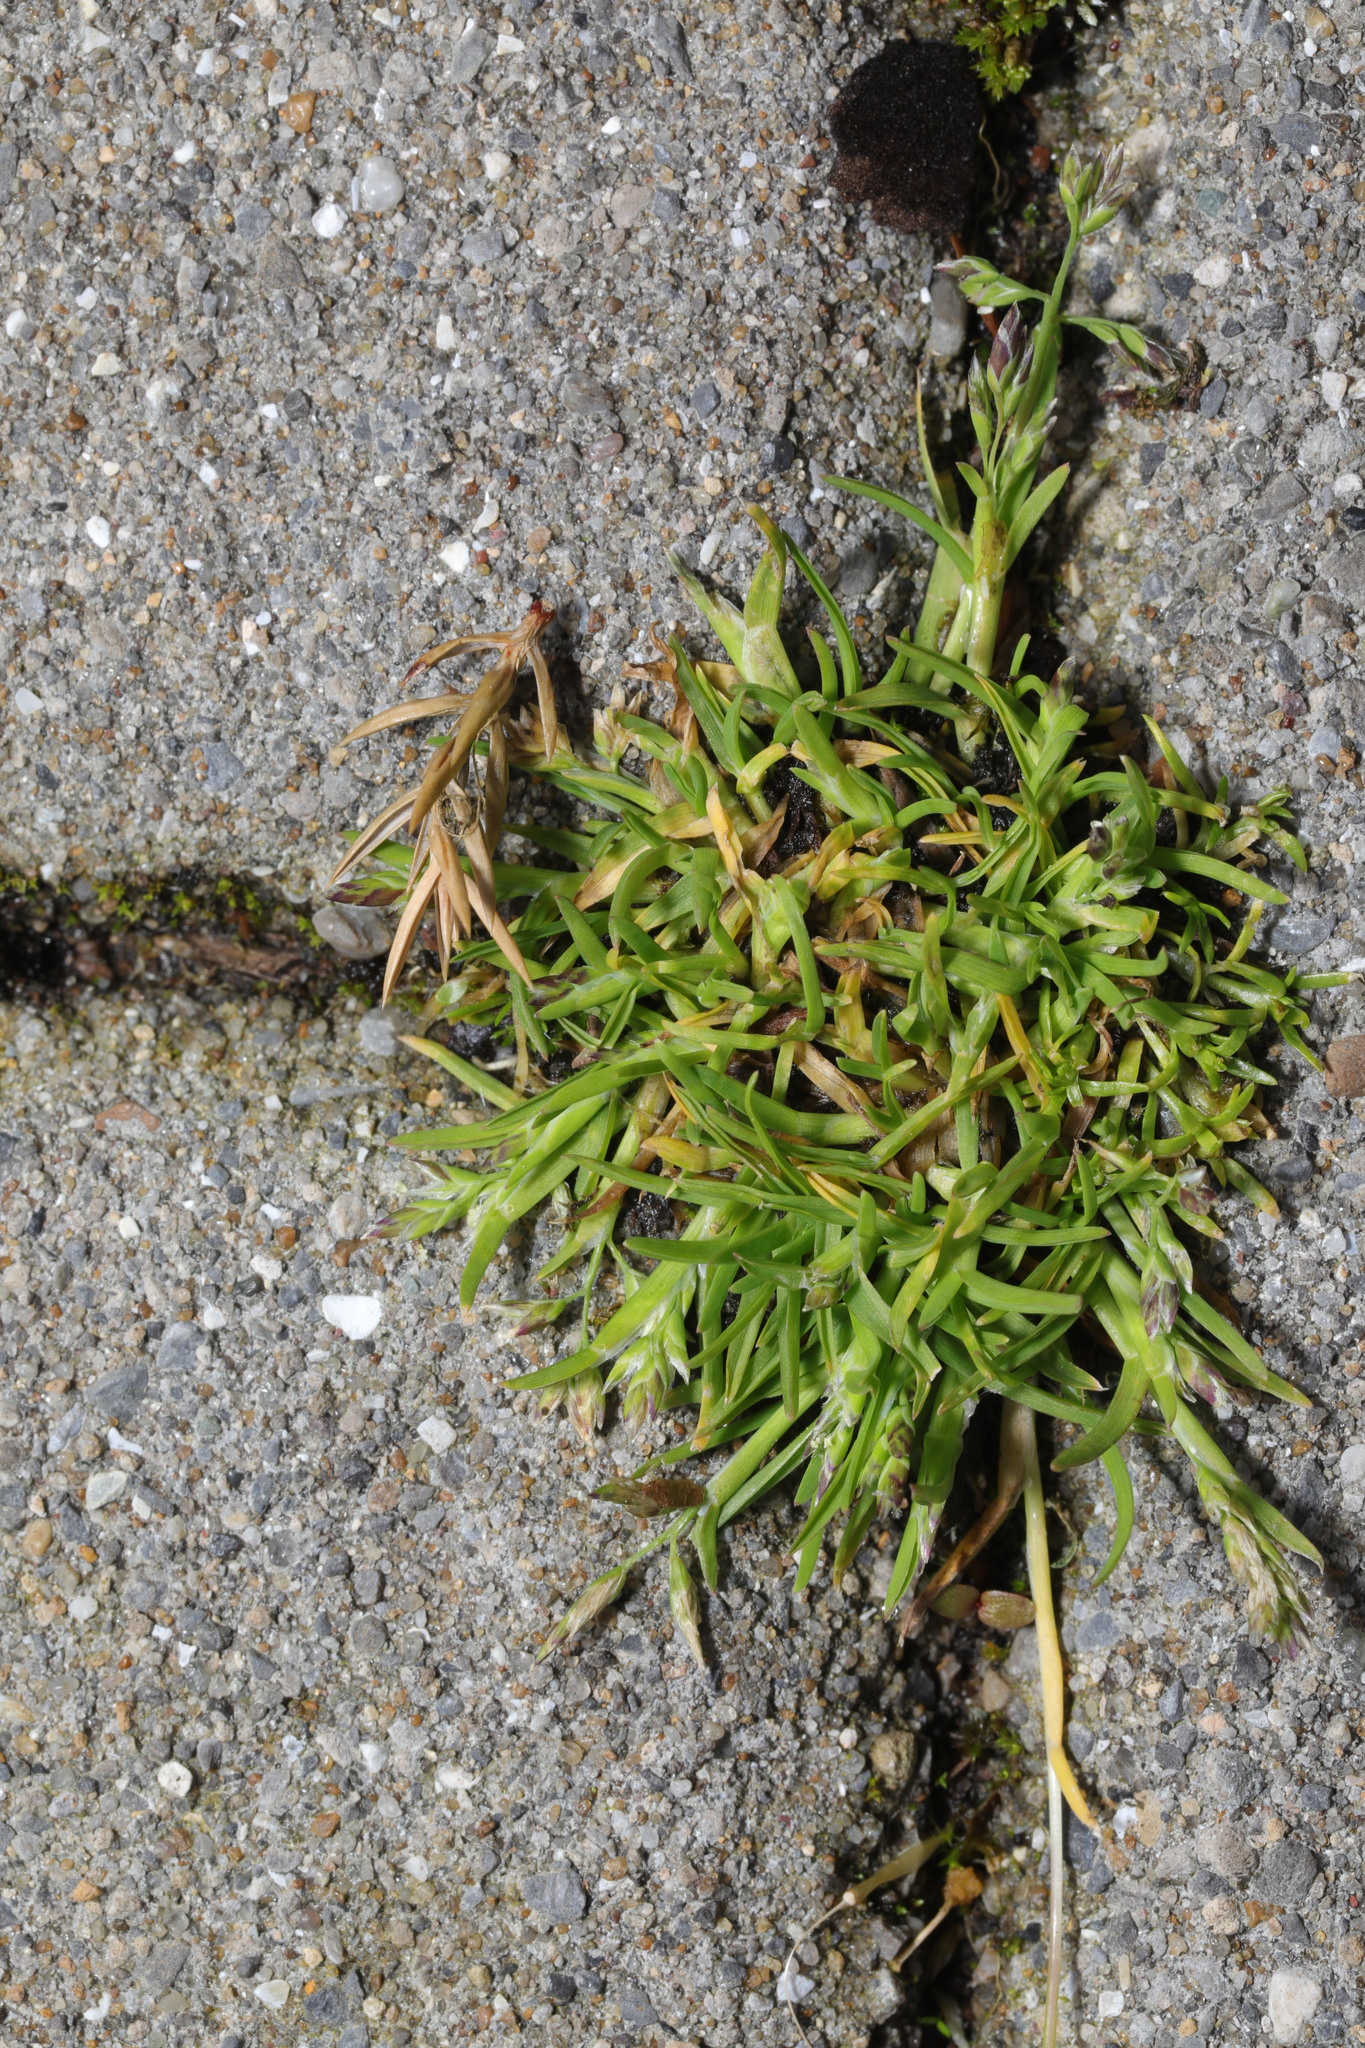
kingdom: Plantae
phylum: Tracheophyta
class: Magnoliopsida
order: Caryophyllales
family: Caryophyllaceae
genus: Sagina
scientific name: Sagina procumbens
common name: Procumbent pearlwort
